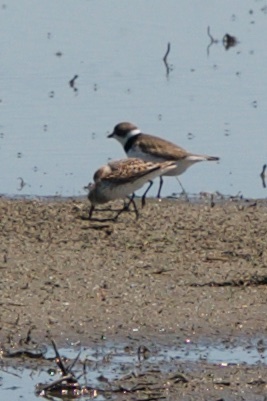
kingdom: Animalia
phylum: Chordata
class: Aves
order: Charadriiformes
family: Charadriidae
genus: Charadrius
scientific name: Charadrius semipalmatus
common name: Semipalmated plover
